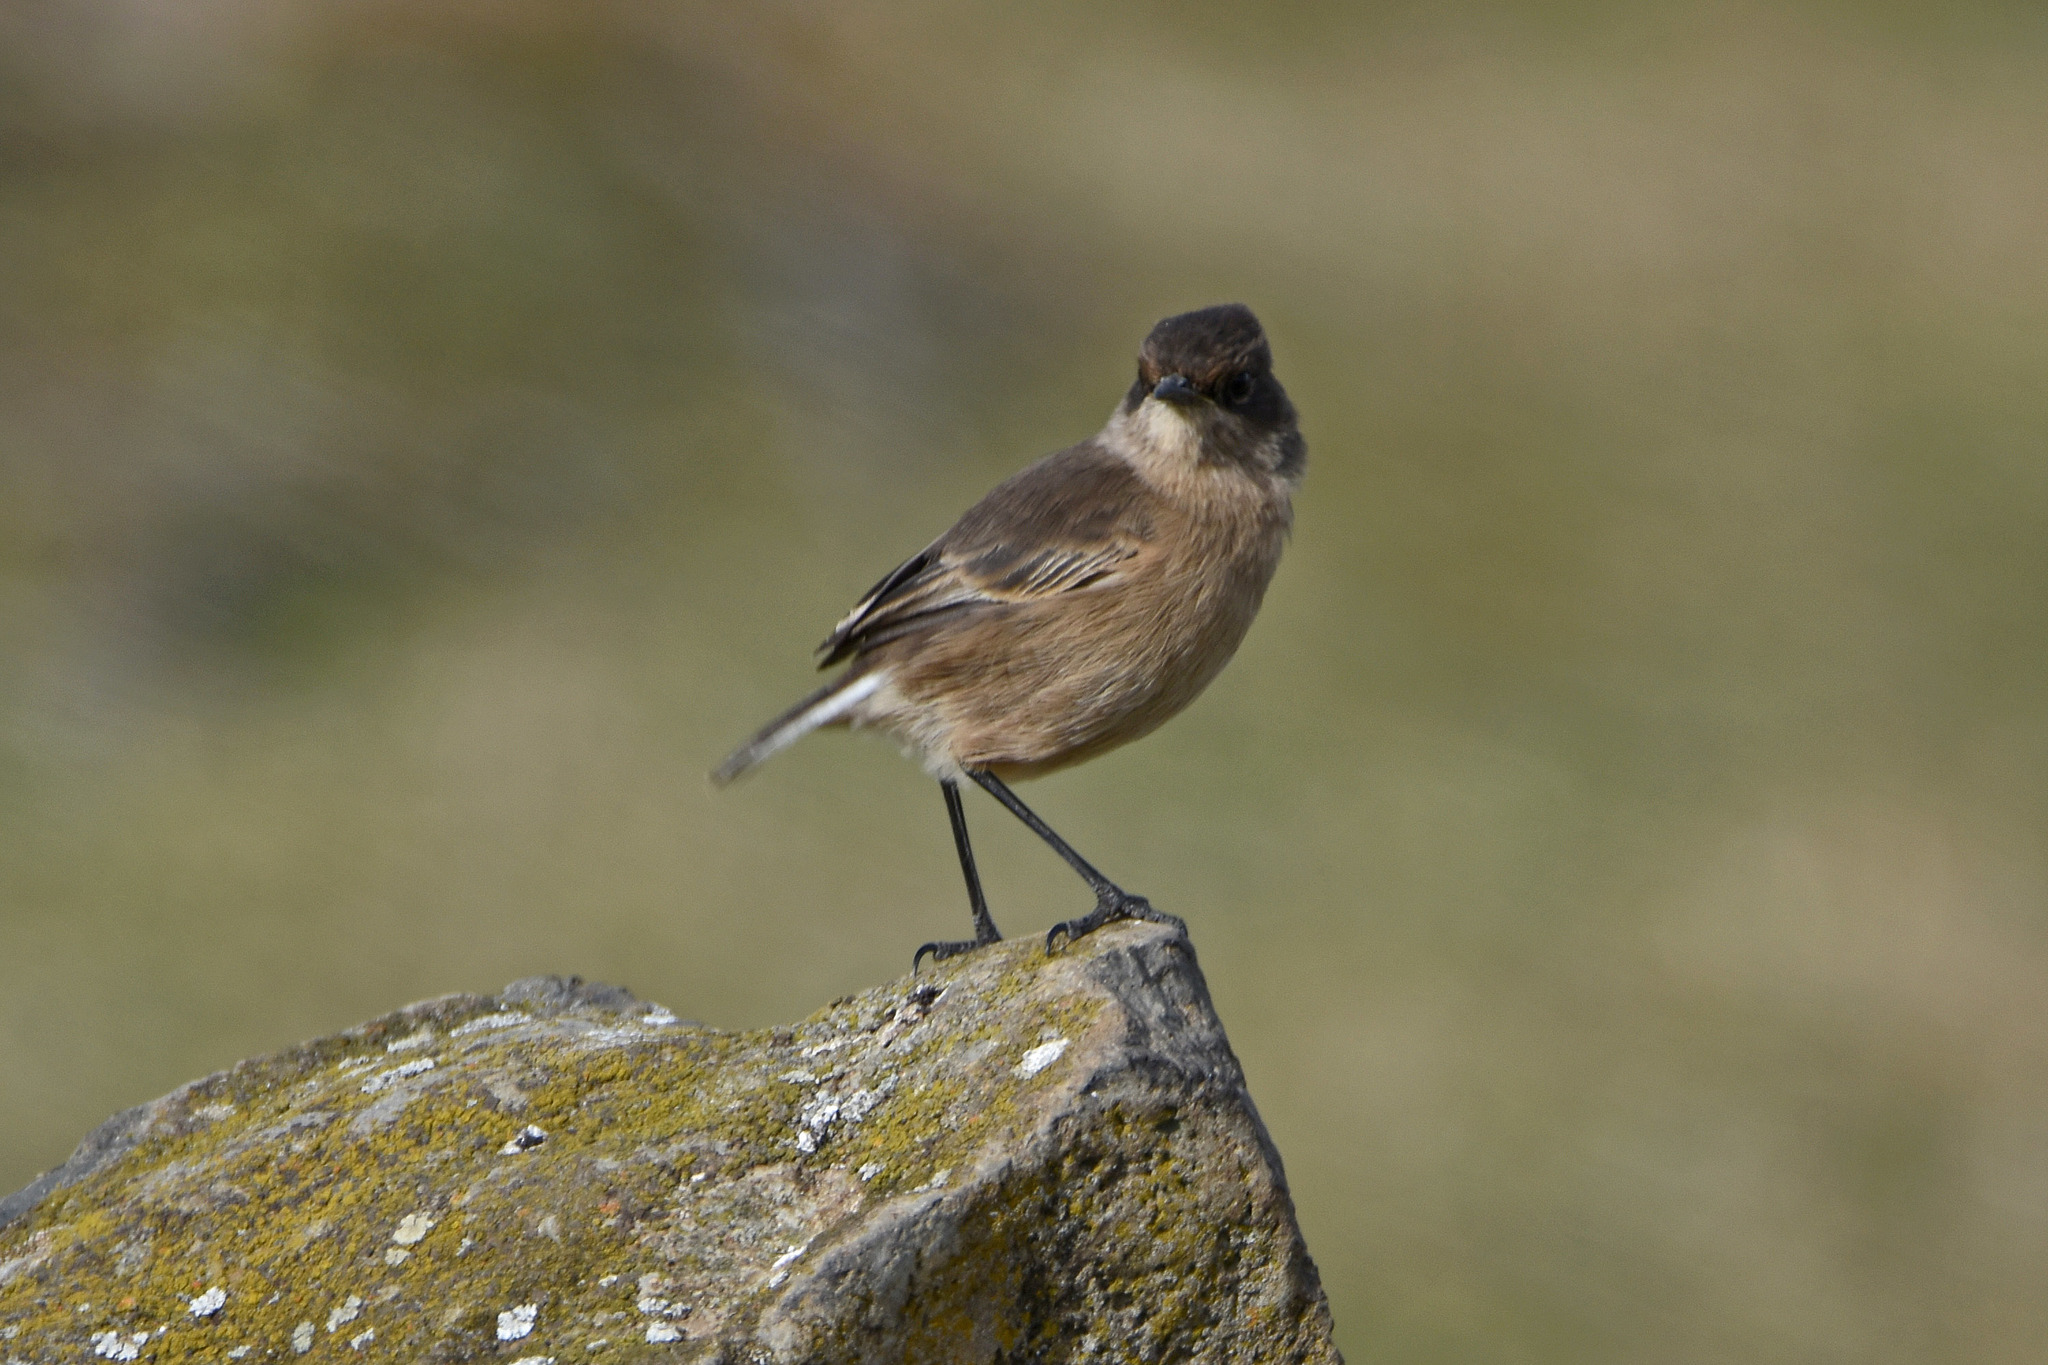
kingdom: Animalia
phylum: Chordata
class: Aves
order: Passeriformes
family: Muscicapidae
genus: Pinarochroa
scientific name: Pinarochroa sordida
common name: Moorland chat
